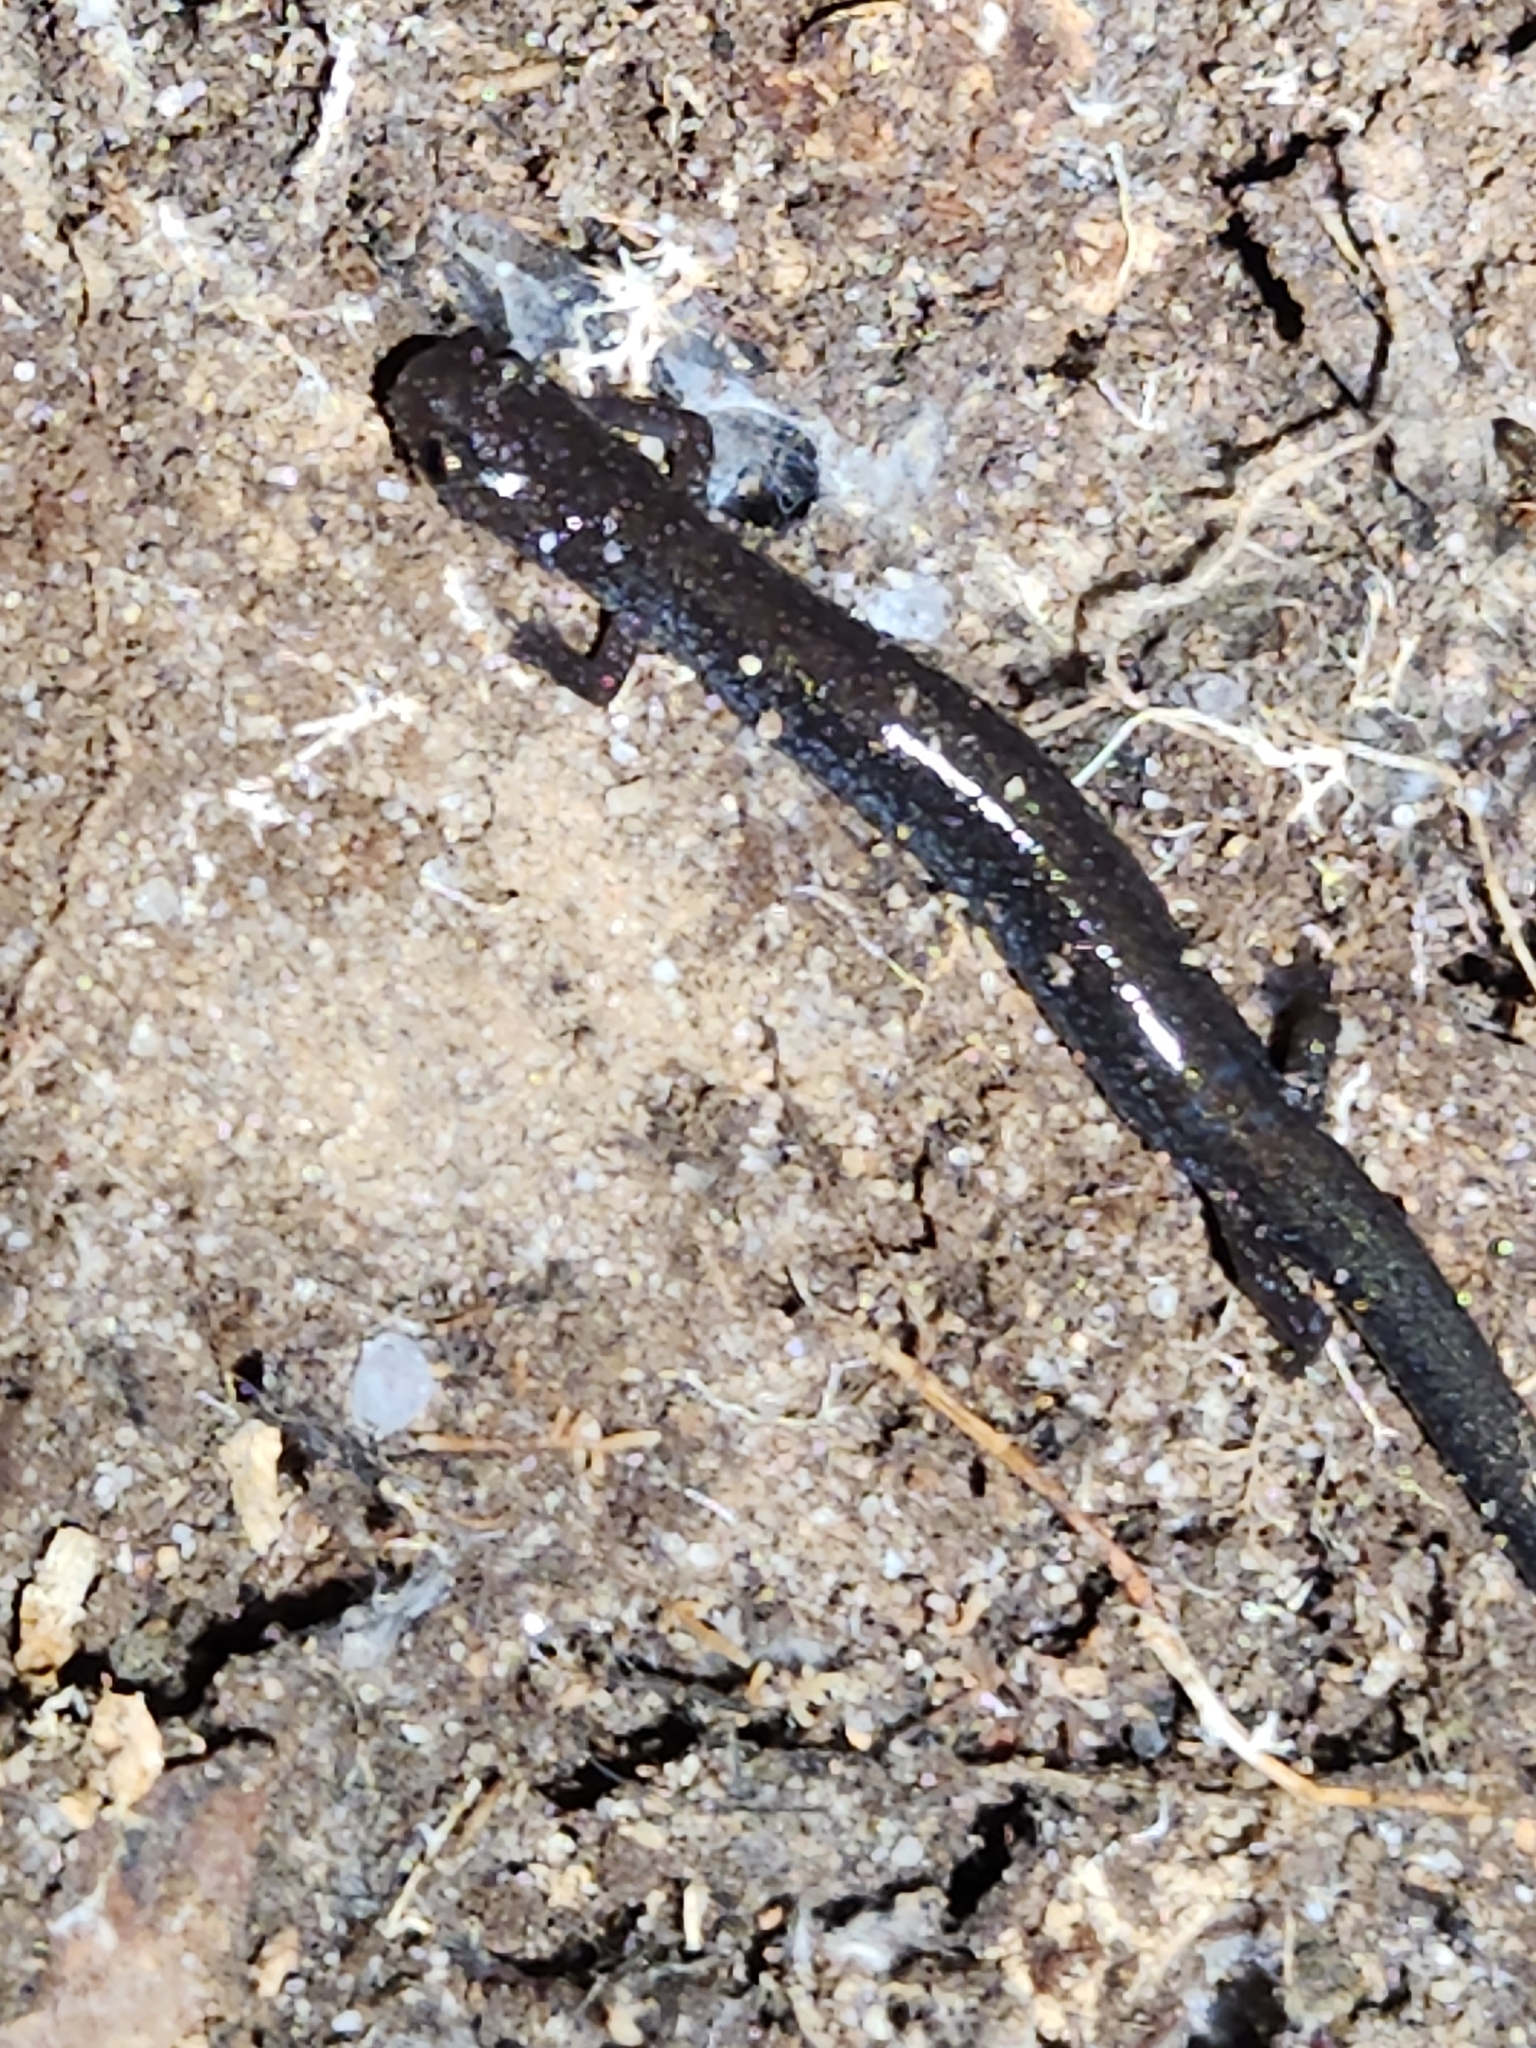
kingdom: Animalia
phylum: Chordata
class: Amphibia
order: Caudata
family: Plethodontidae
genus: Plethodon
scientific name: Plethodon cinereus
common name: Redback salamander
